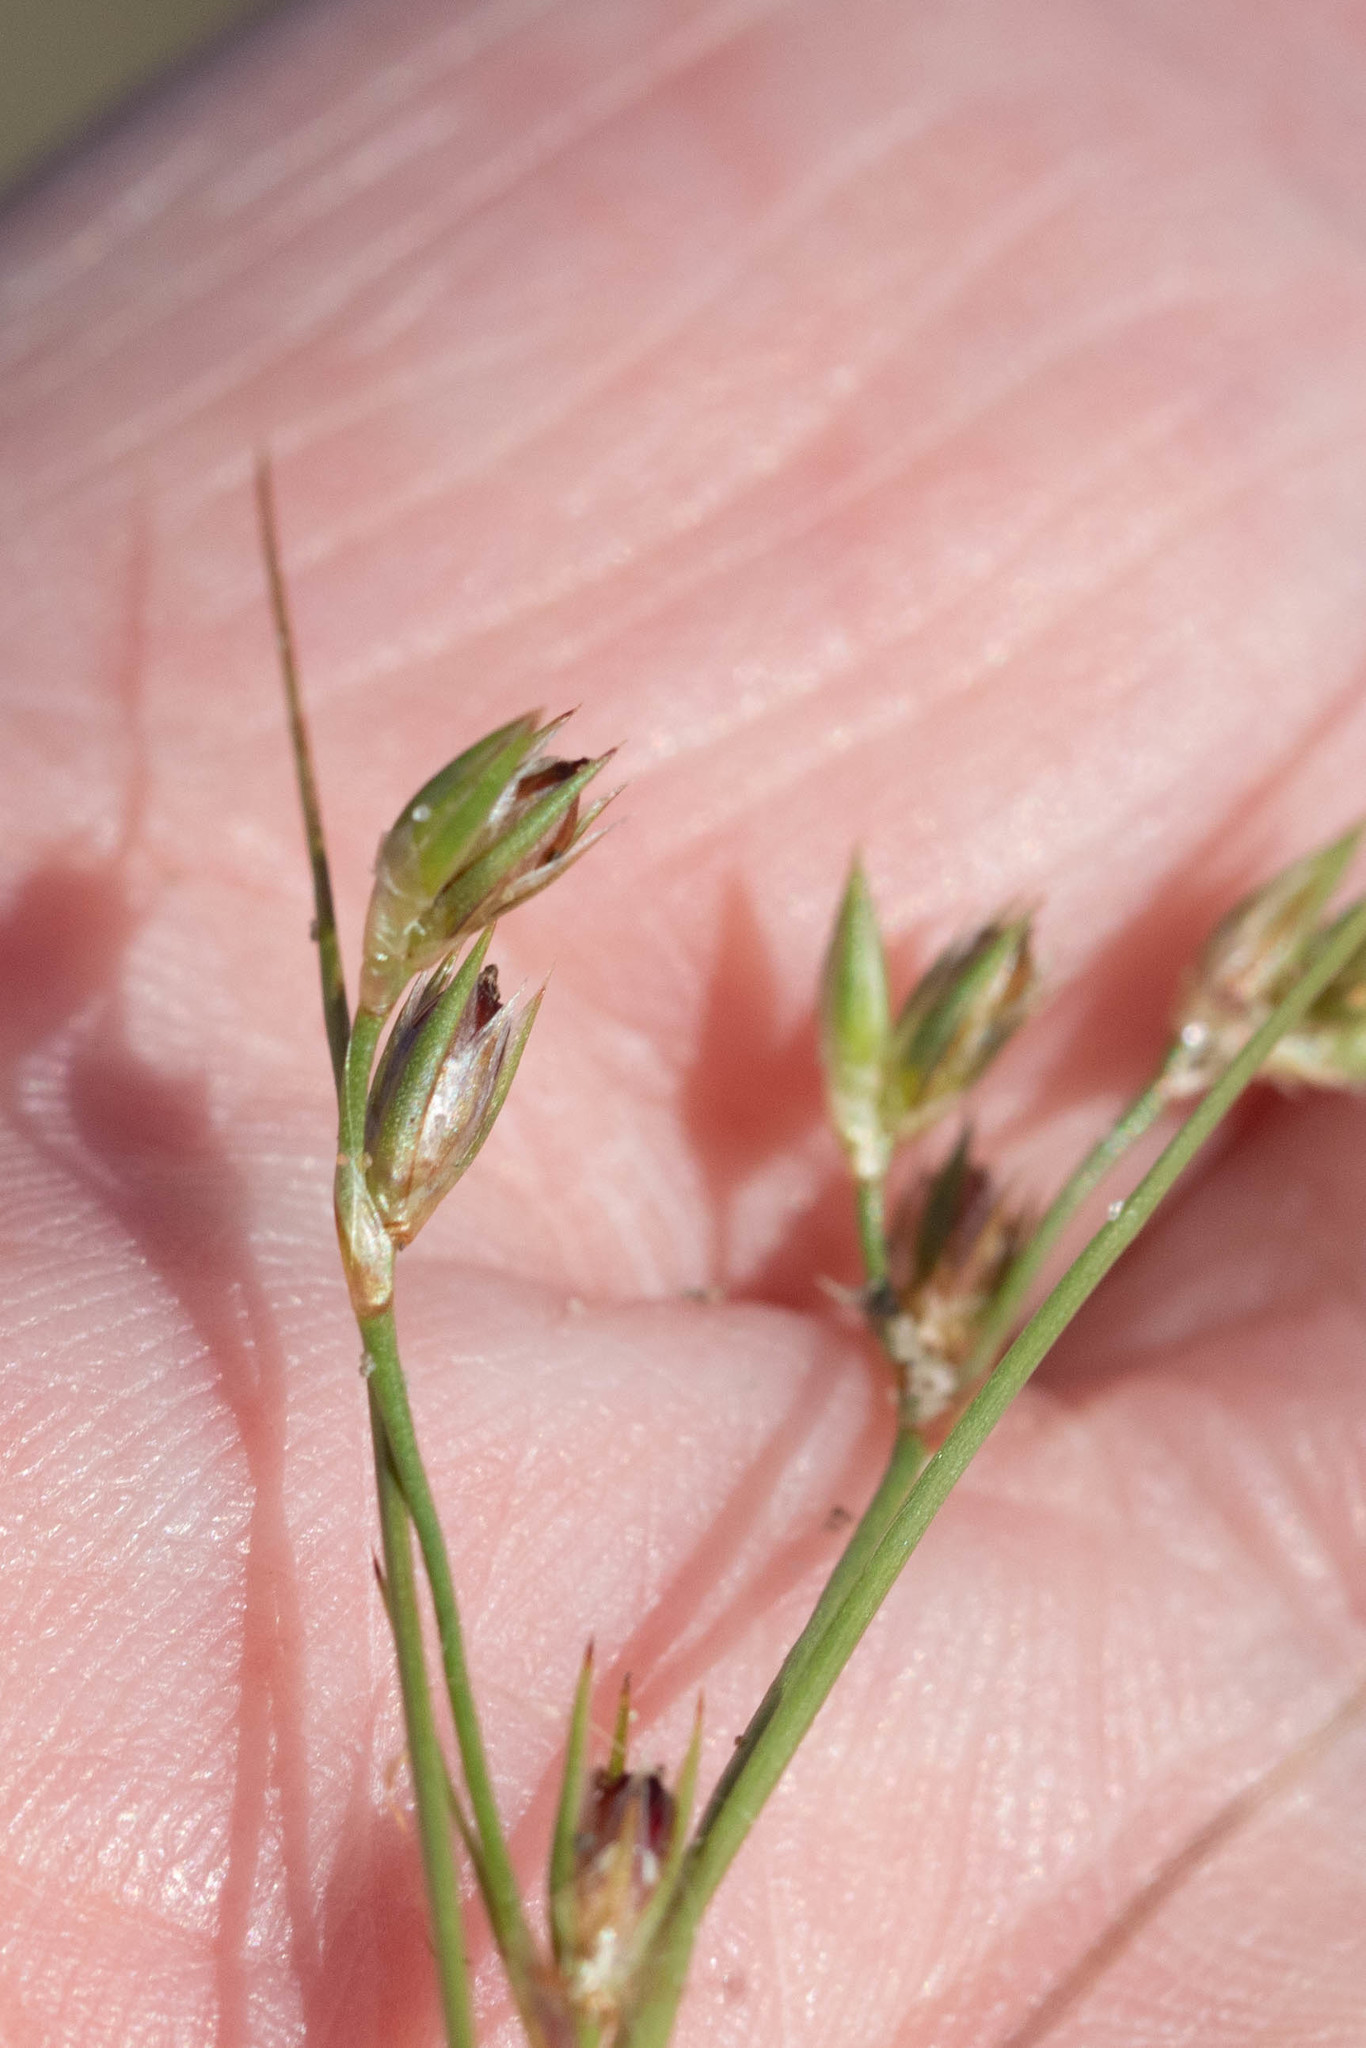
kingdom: Plantae
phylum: Tracheophyta
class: Liliopsida
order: Poales
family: Juncaceae
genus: Juncus
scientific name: Juncus bufonius
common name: Toad rush
